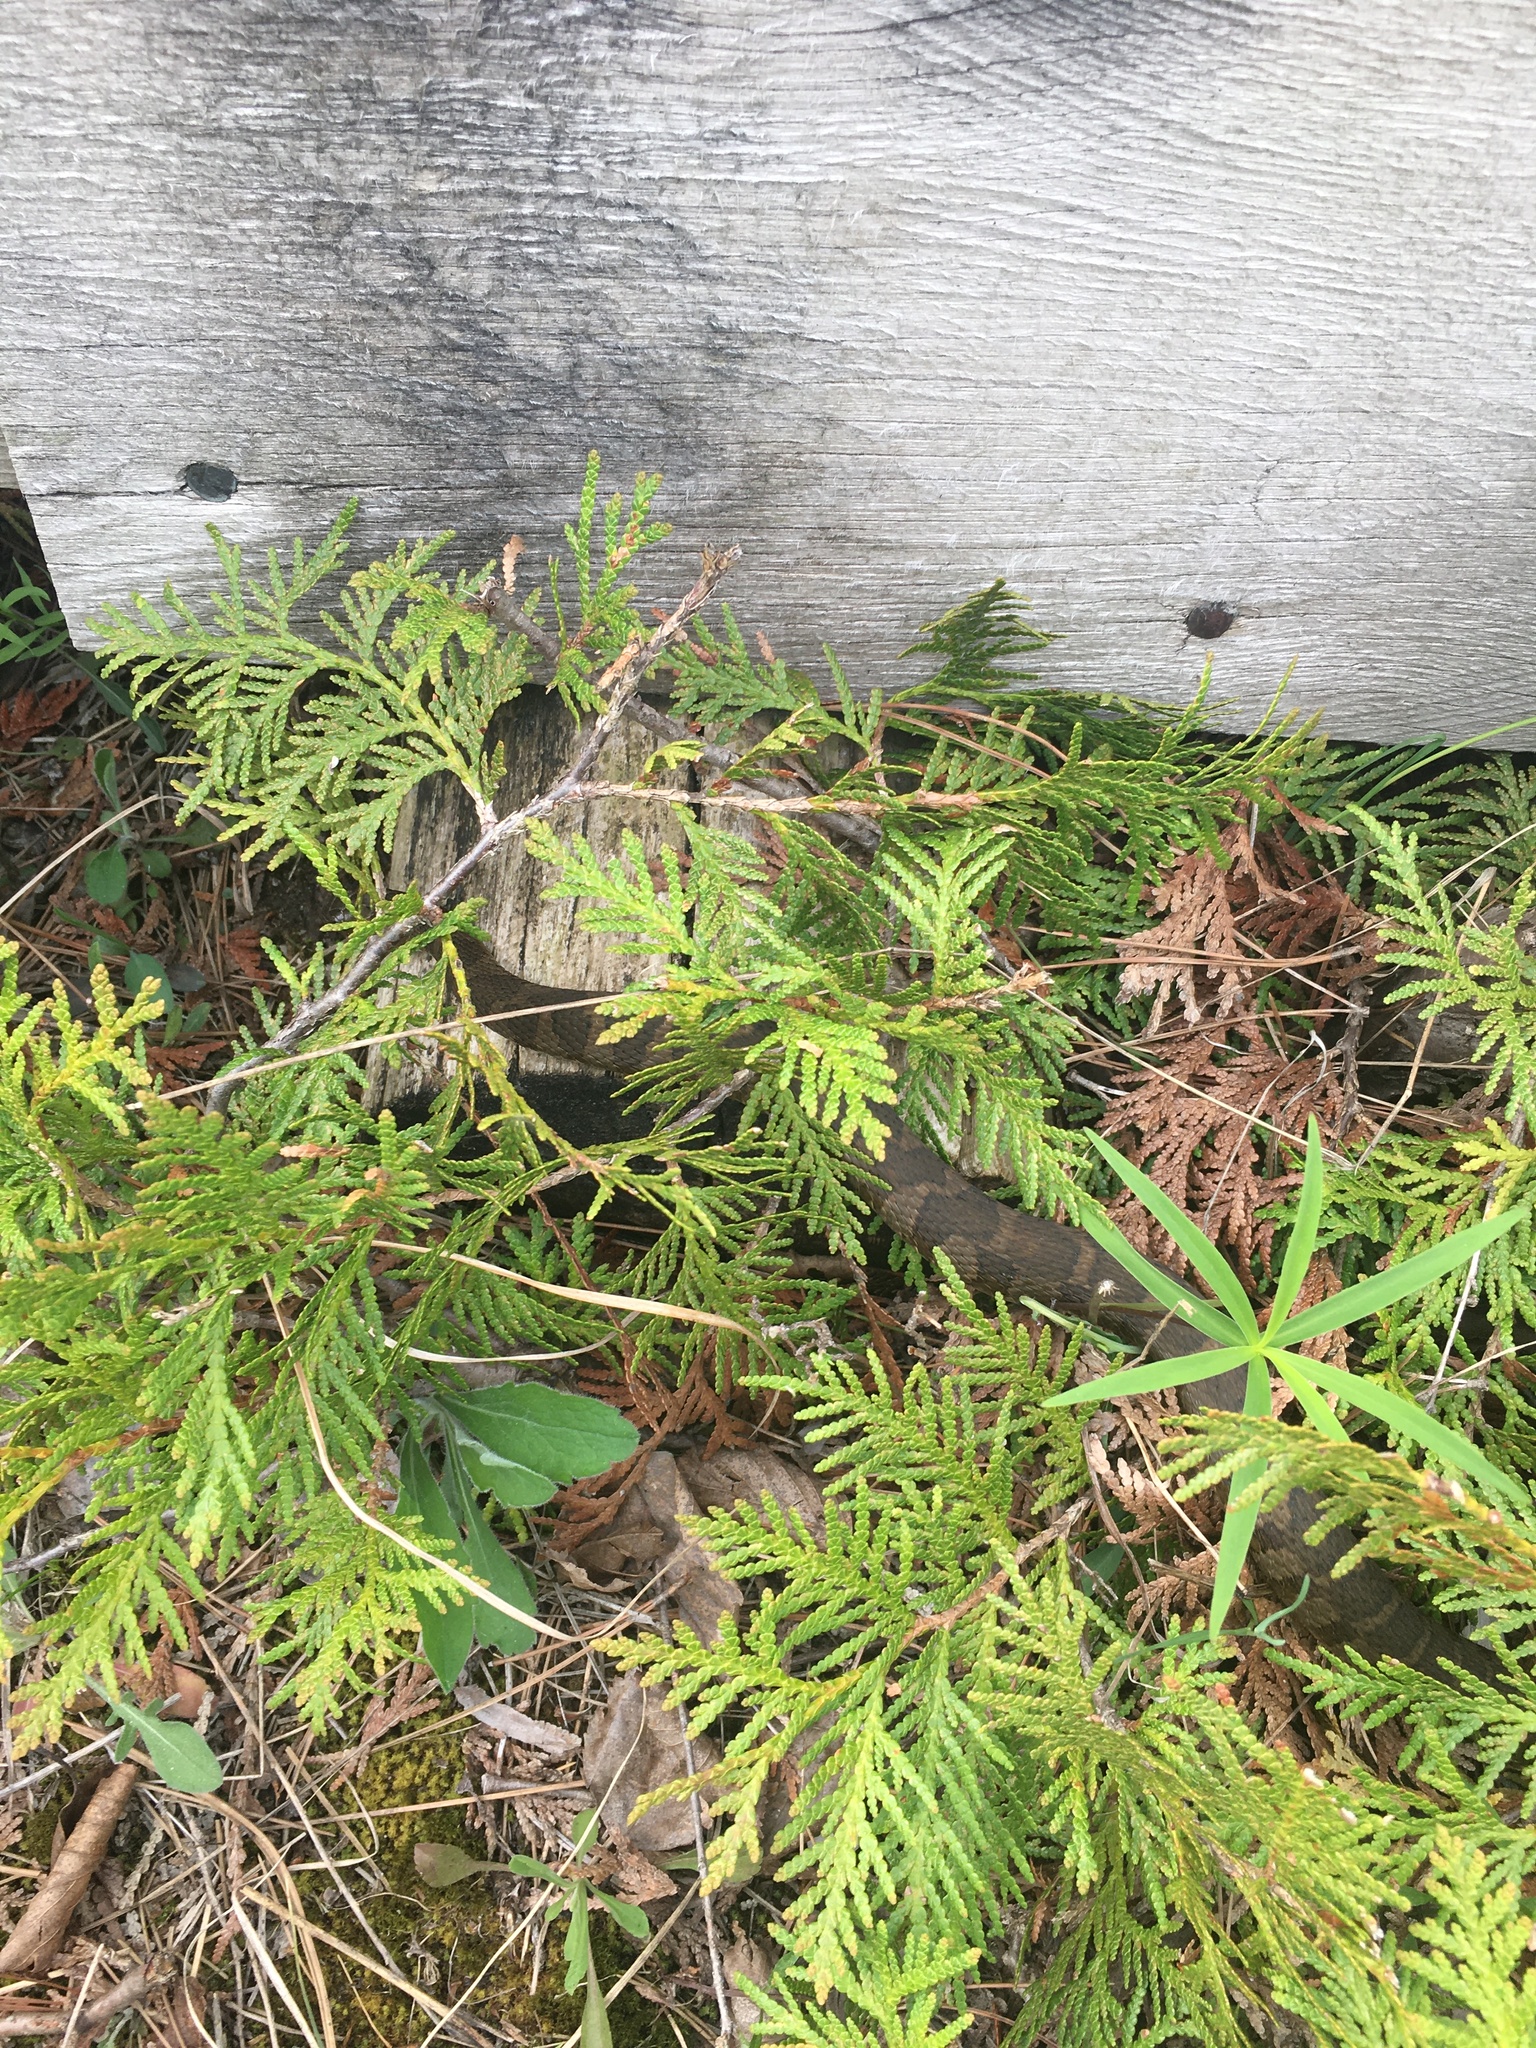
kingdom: Animalia
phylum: Chordata
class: Squamata
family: Colubridae
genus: Nerodia
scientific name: Nerodia sipedon
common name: Northern water snake
